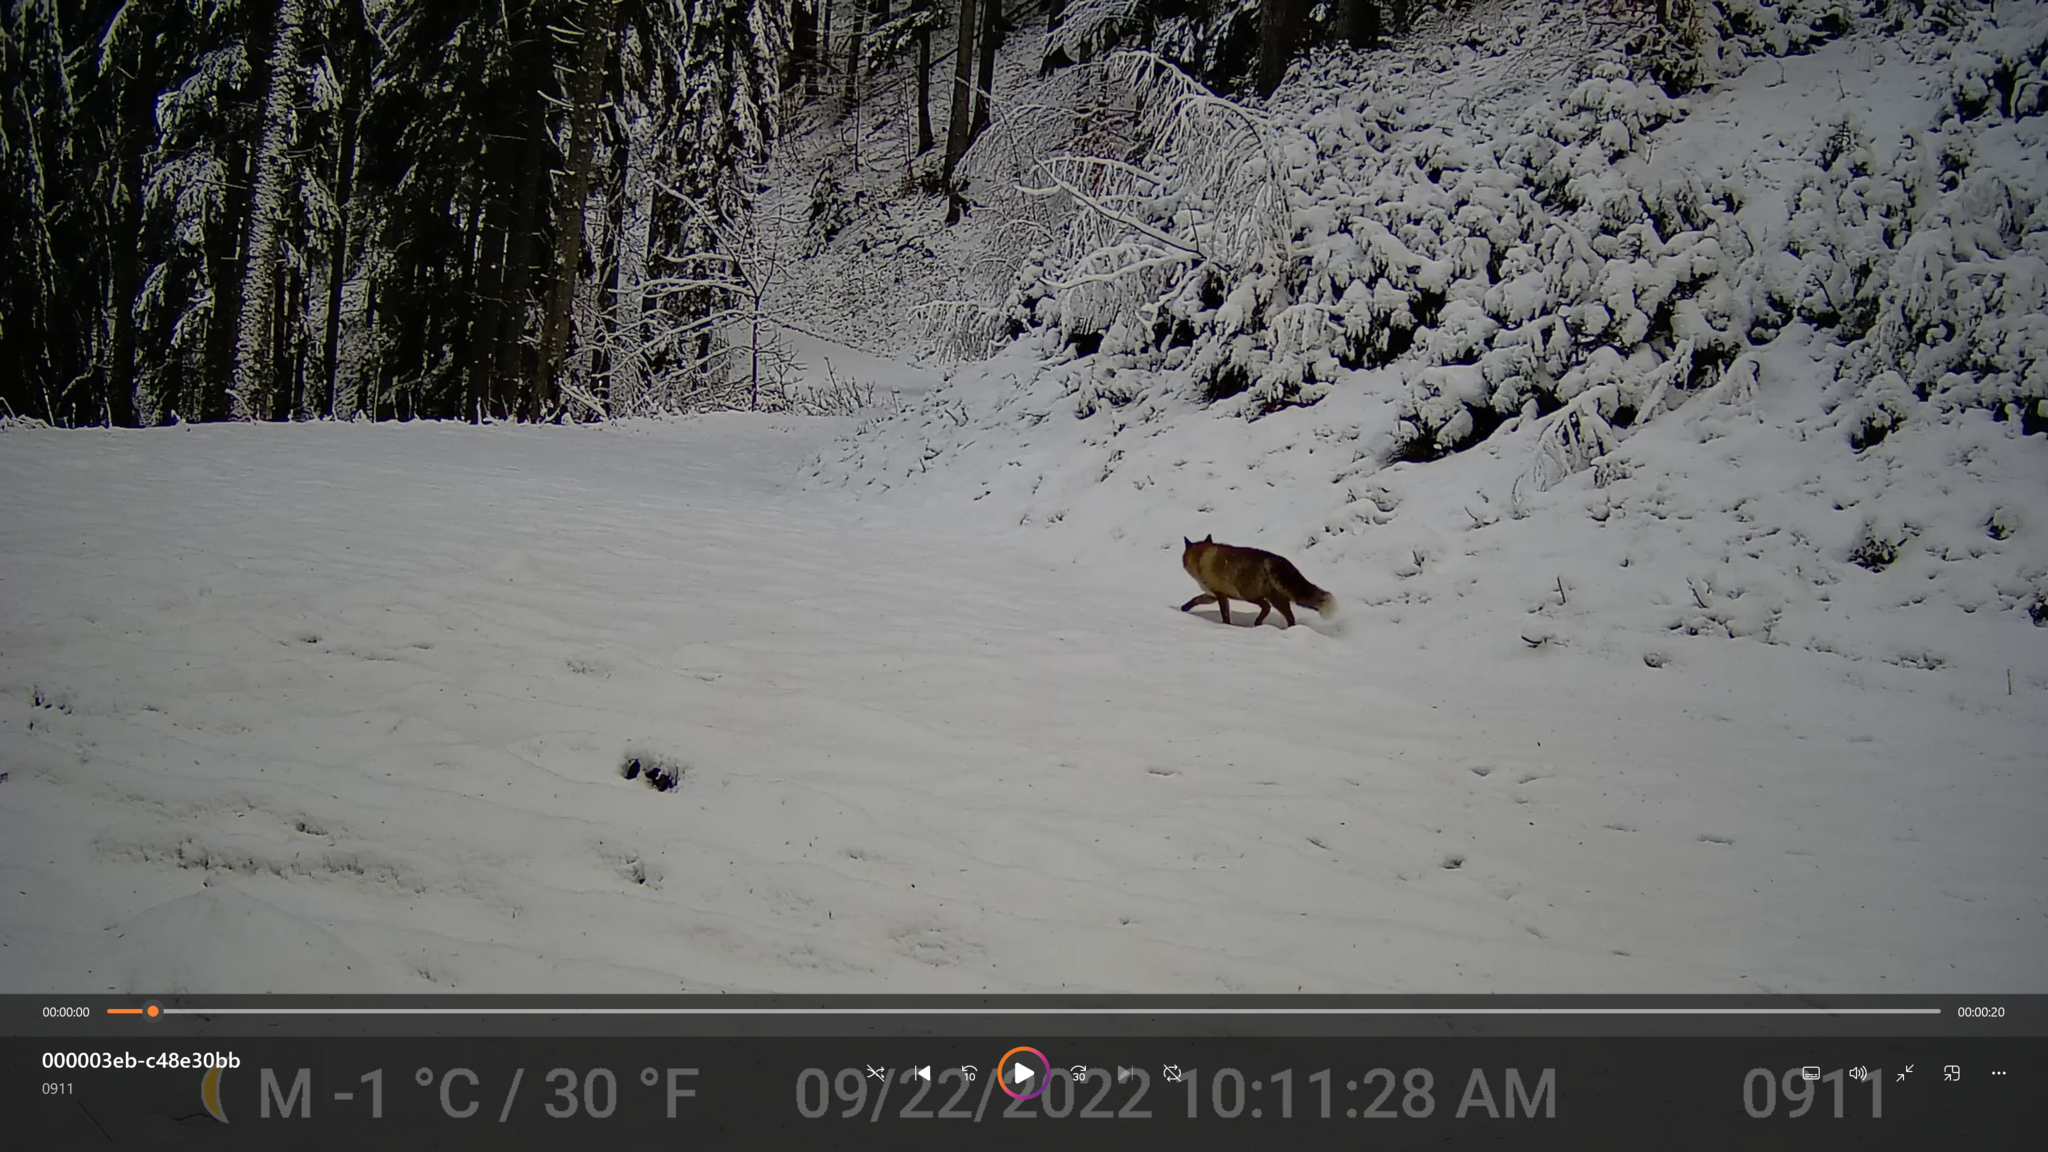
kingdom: Animalia
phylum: Chordata
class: Mammalia
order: Carnivora
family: Canidae
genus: Vulpes
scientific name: Vulpes vulpes
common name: Red fox
